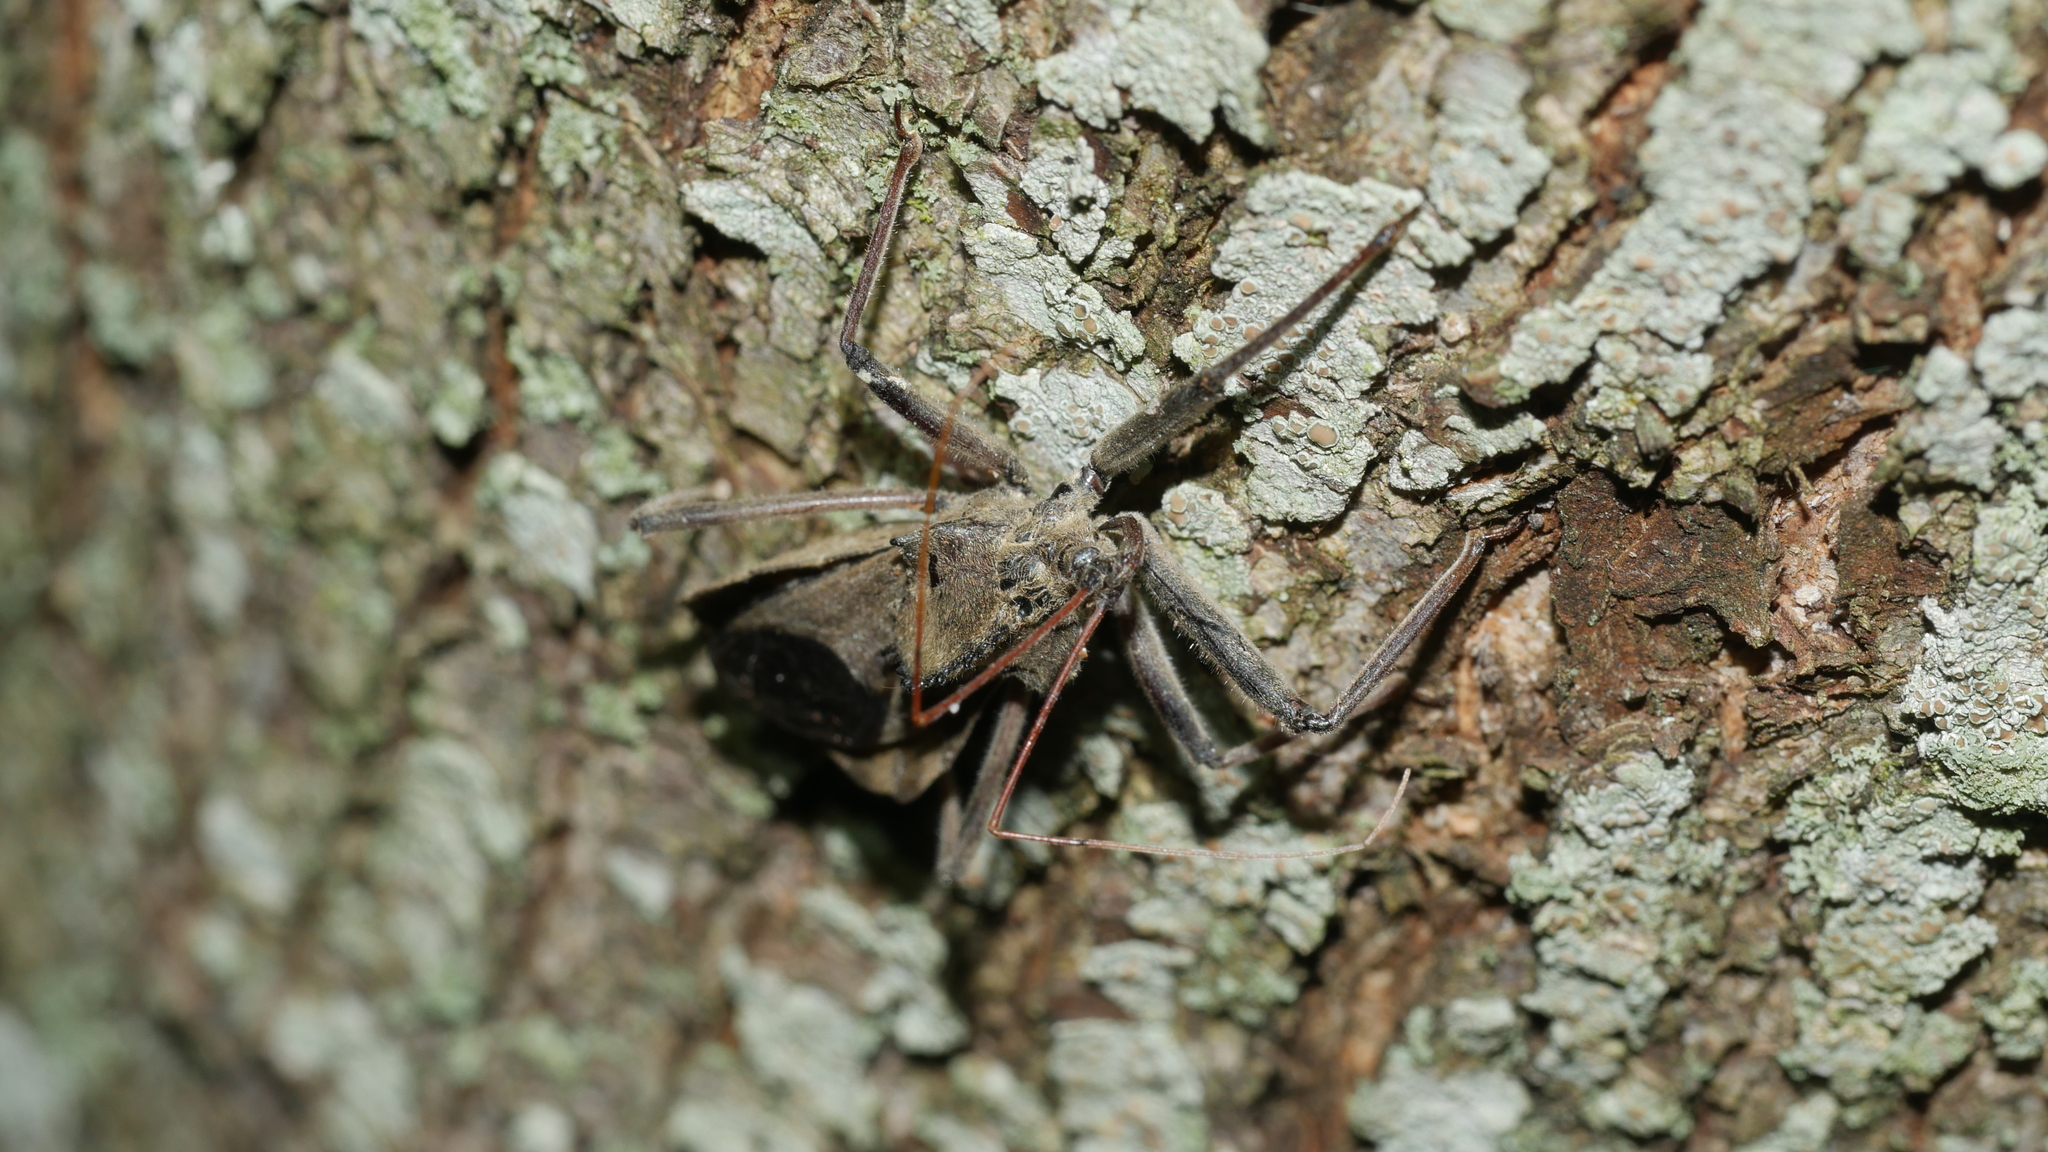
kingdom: Animalia
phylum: Arthropoda
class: Insecta
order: Hemiptera
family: Reduviidae
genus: Arilus
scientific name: Arilus cristatus
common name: North american wheel bug
